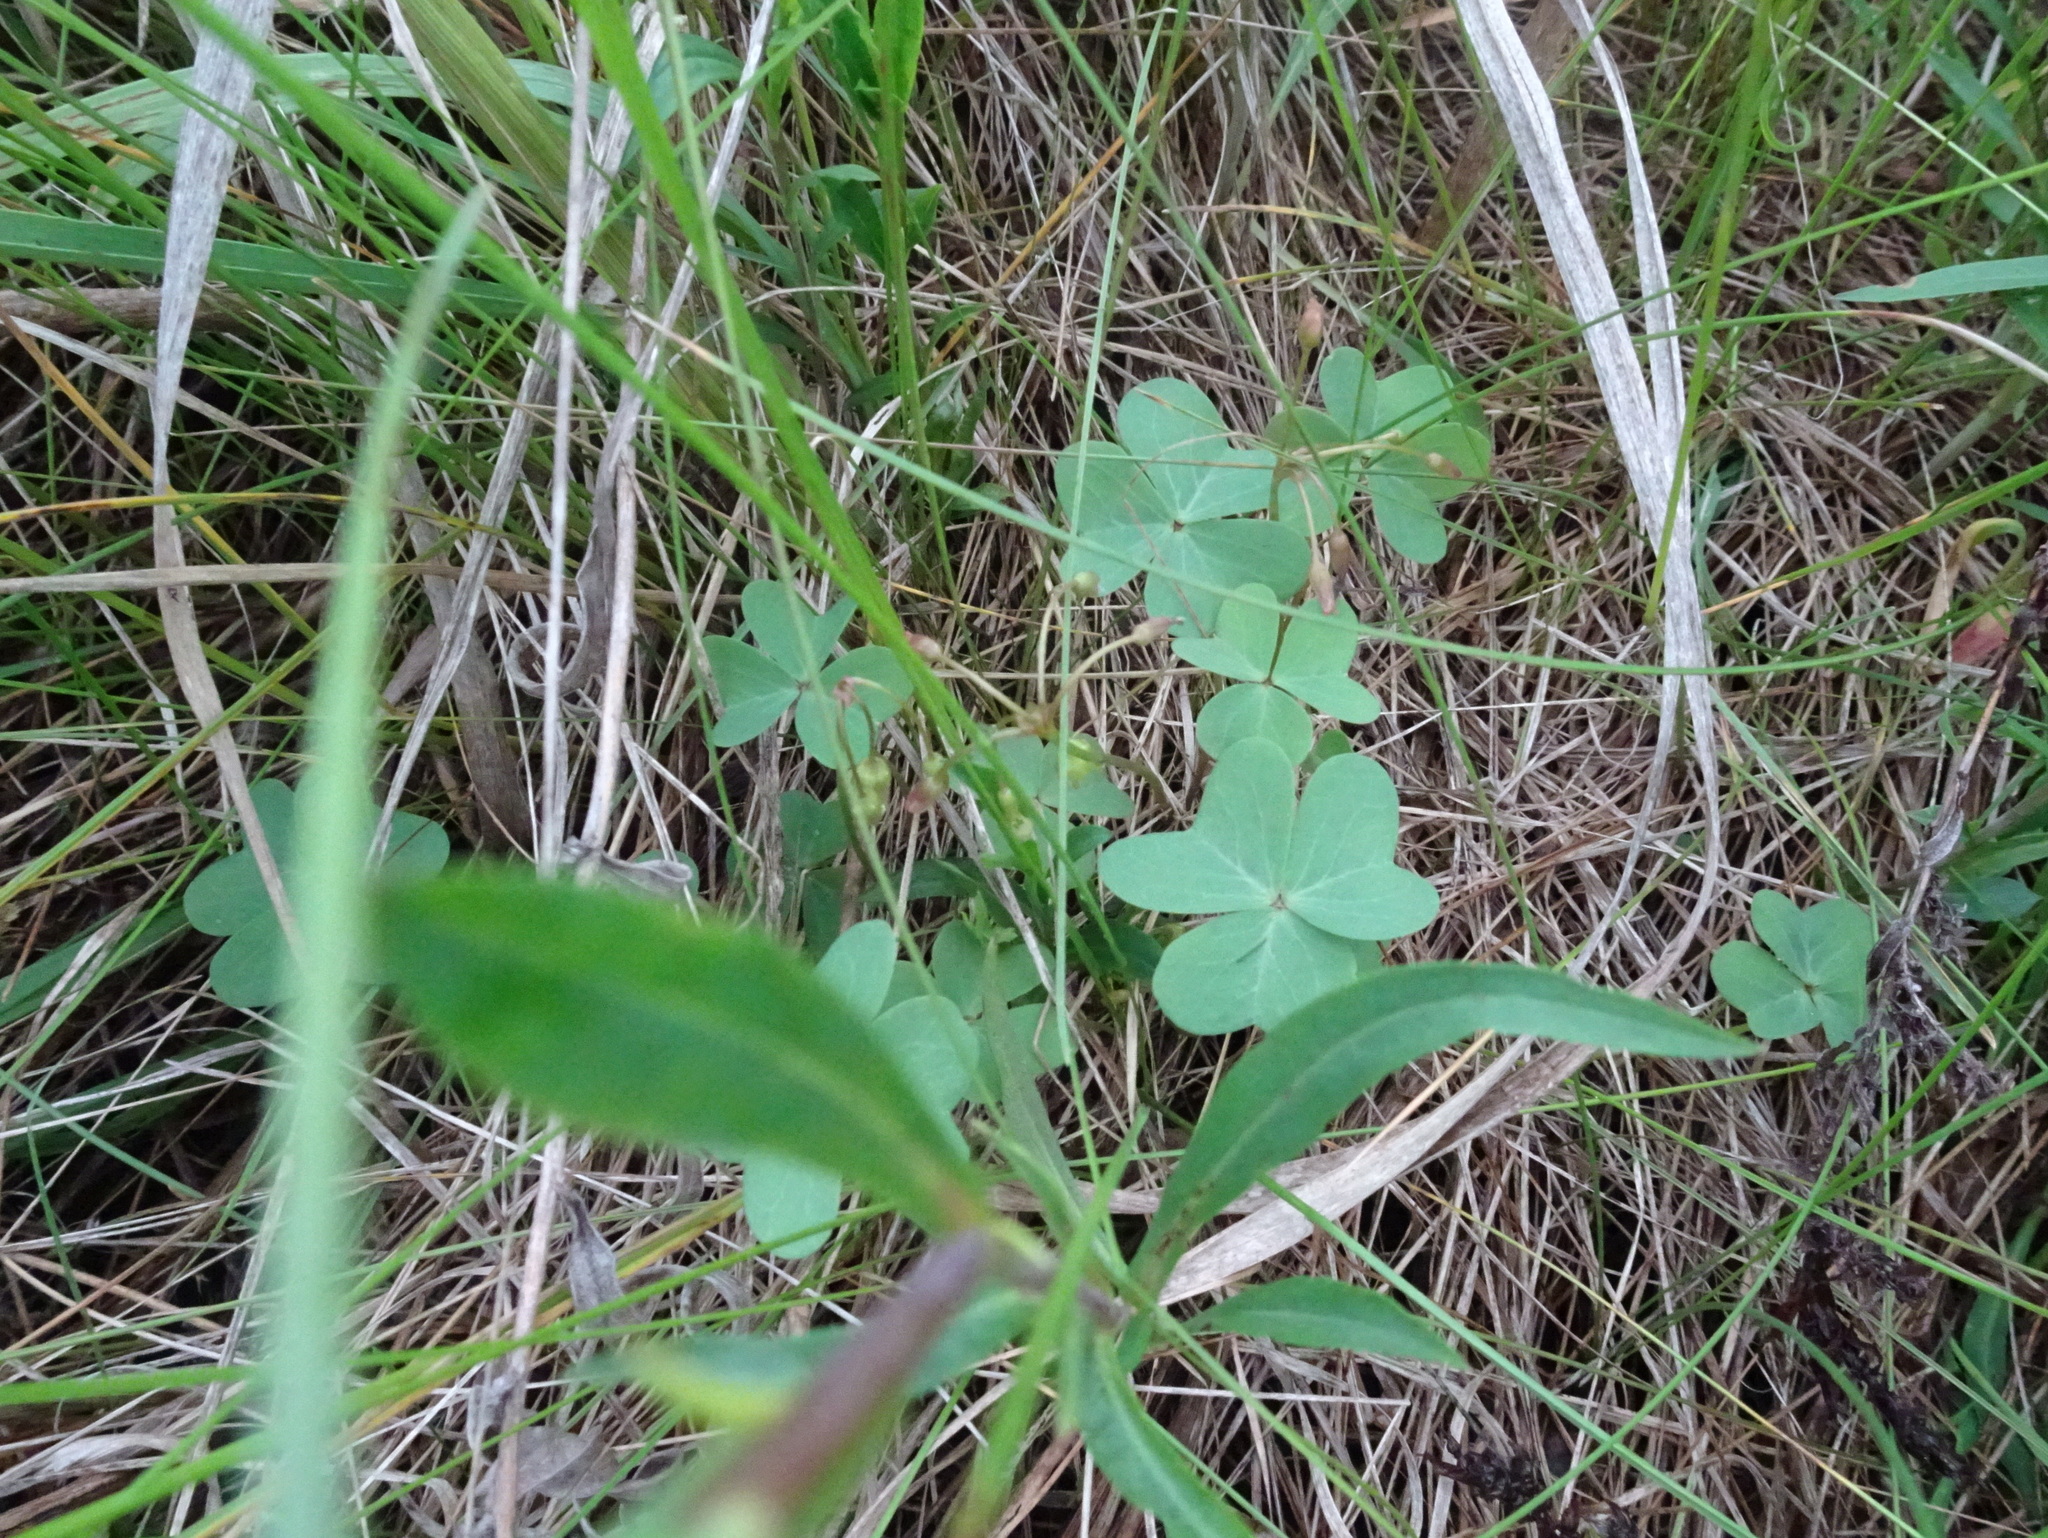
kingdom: Plantae
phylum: Tracheophyta
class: Magnoliopsida
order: Oxalidales
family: Oxalidaceae
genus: Oxalis
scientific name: Oxalis violacea
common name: Violet wood-sorrel
